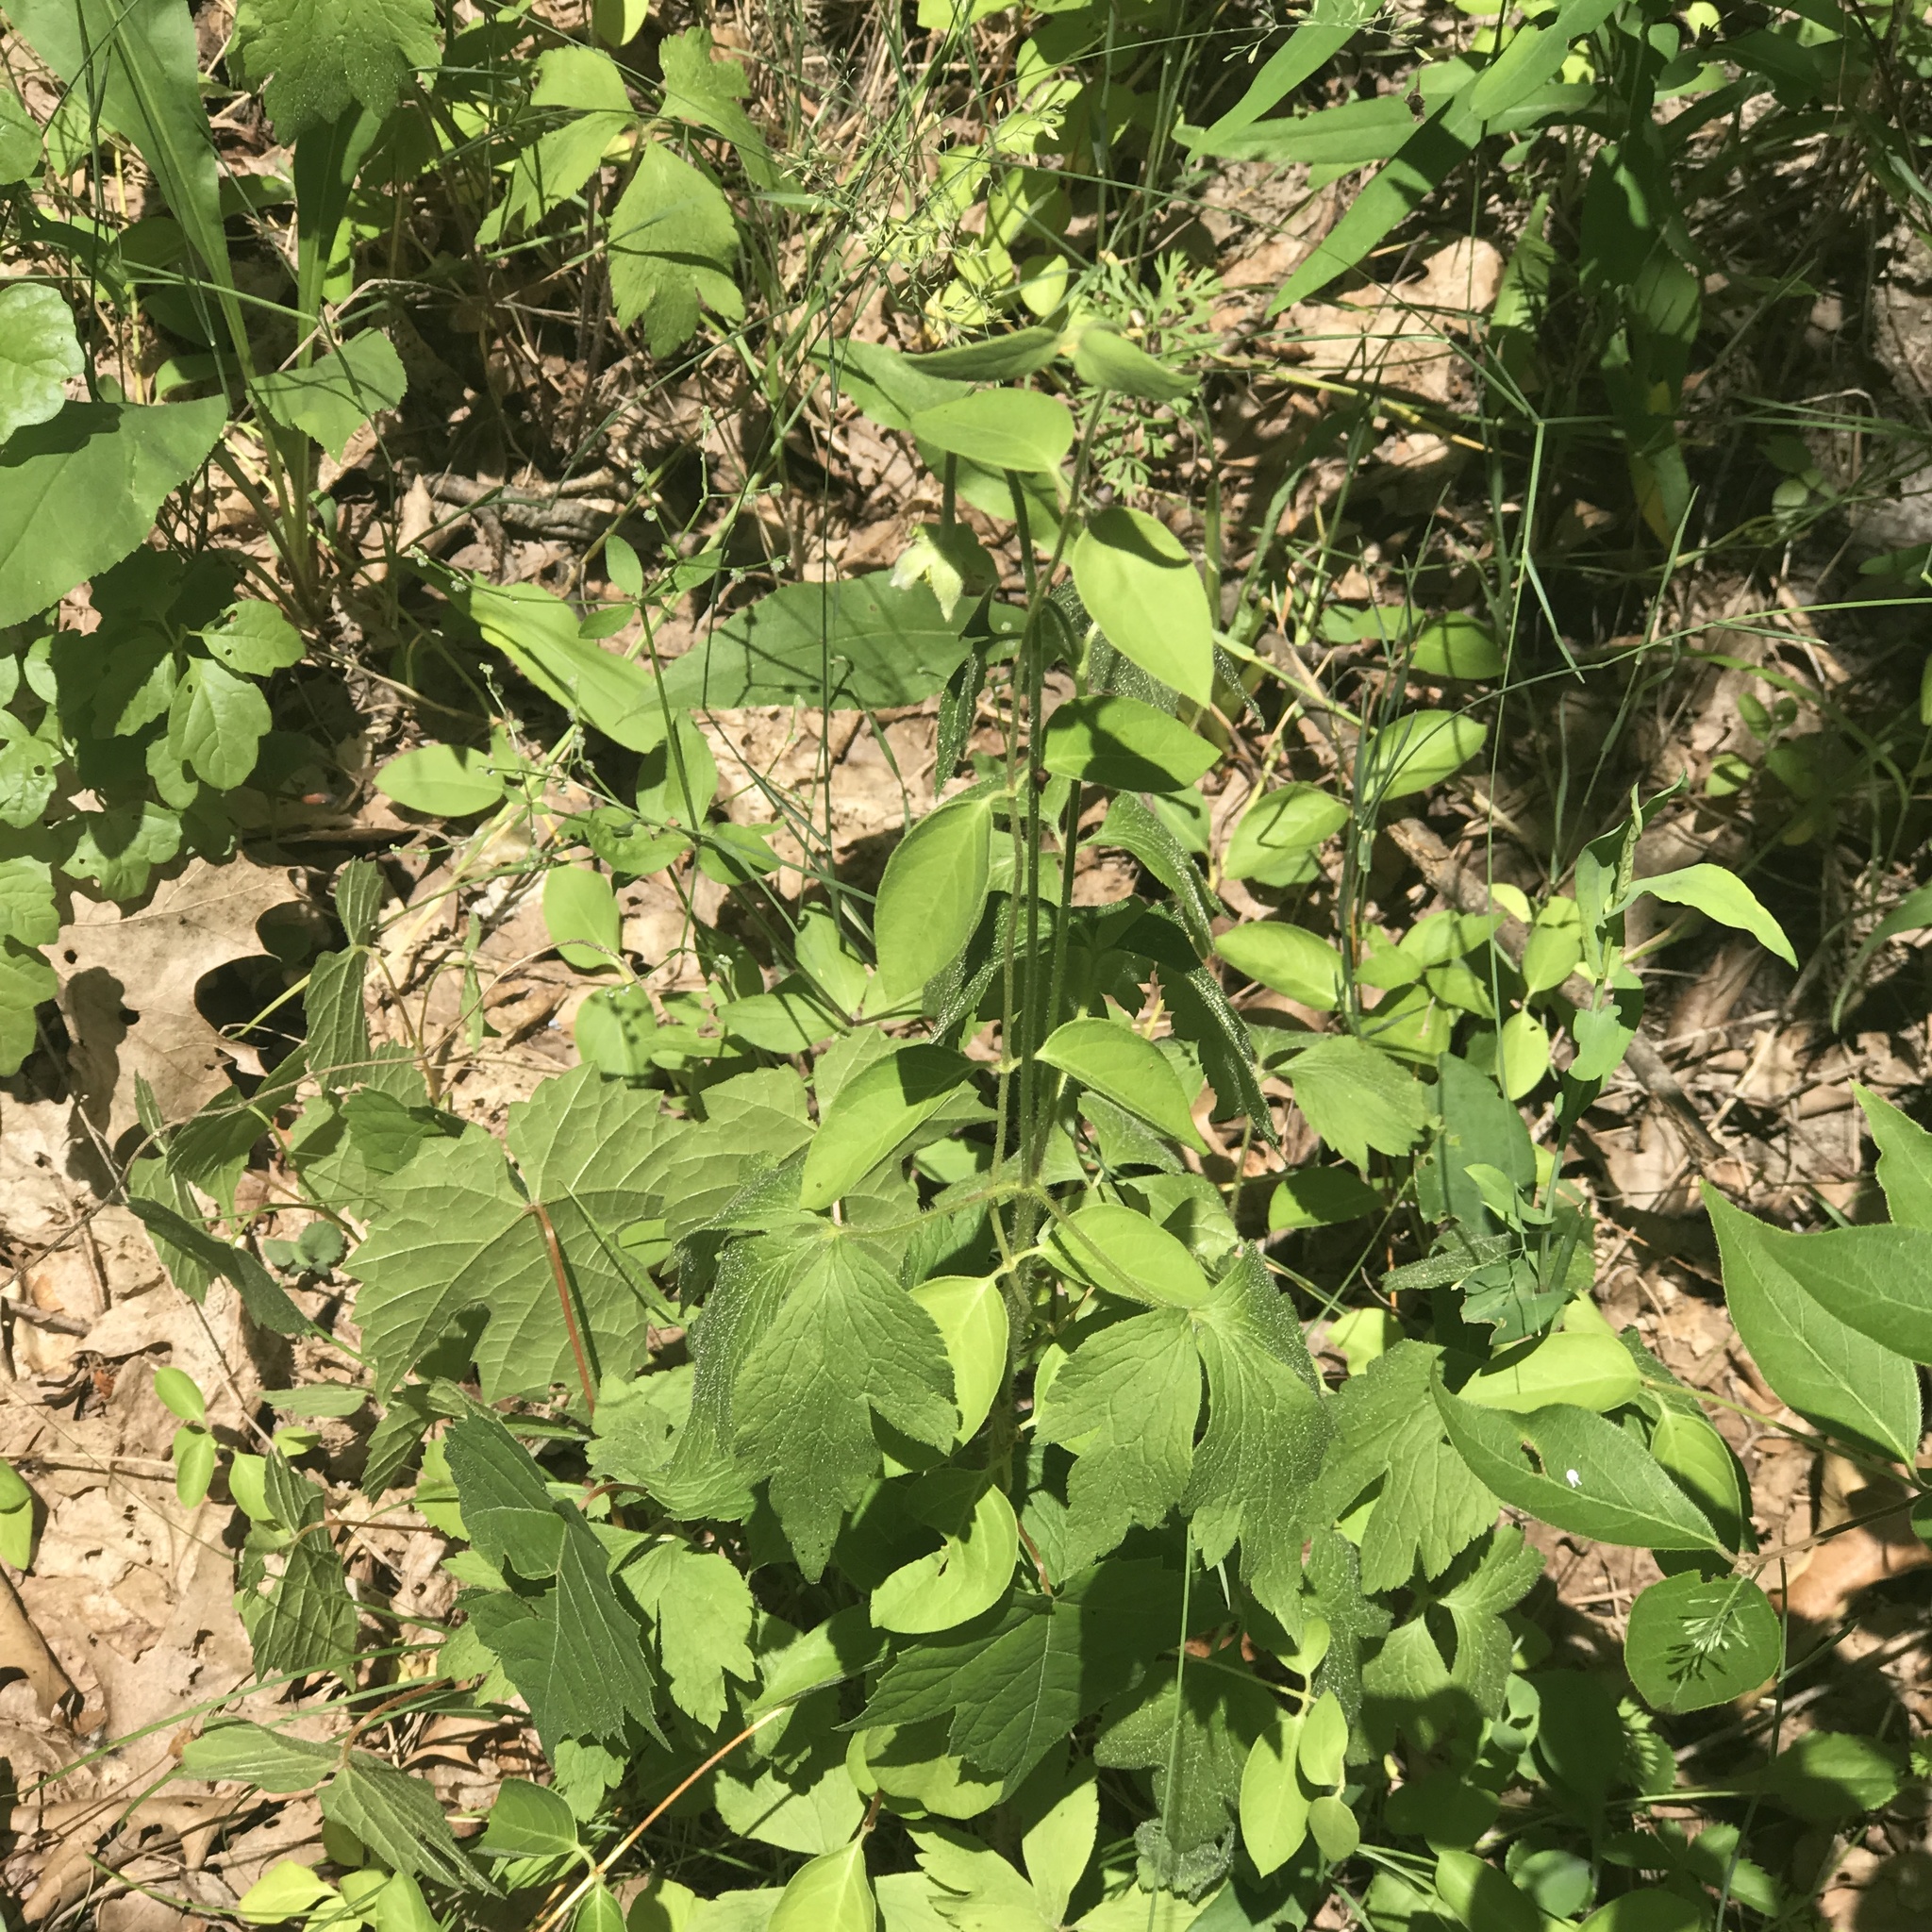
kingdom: Plantae
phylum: Tracheophyta
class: Magnoliopsida
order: Ranunculales
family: Ranunculaceae
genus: Anemone
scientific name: Anemone virginiana
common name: Tall anemone
